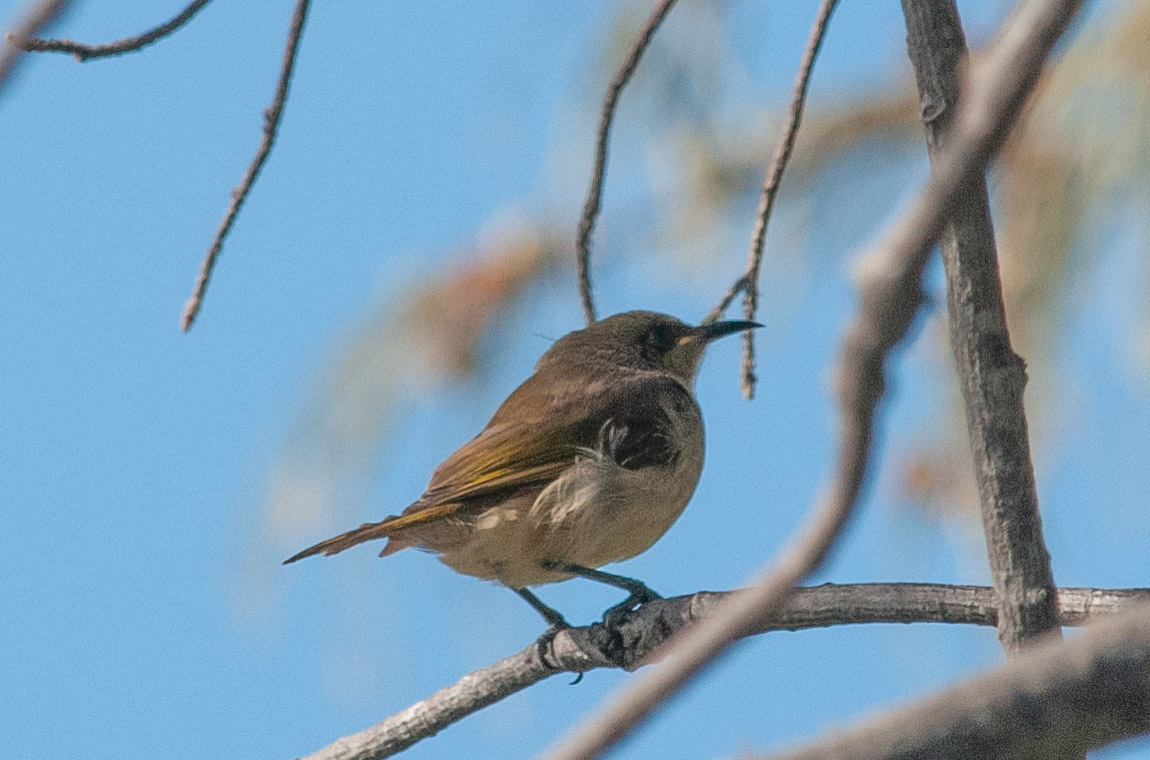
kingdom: Animalia
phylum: Chordata
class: Aves
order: Passeriformes
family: Meliphagidae
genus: Lichmera
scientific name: Lichmera indistincta
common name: Brown honeyeater
